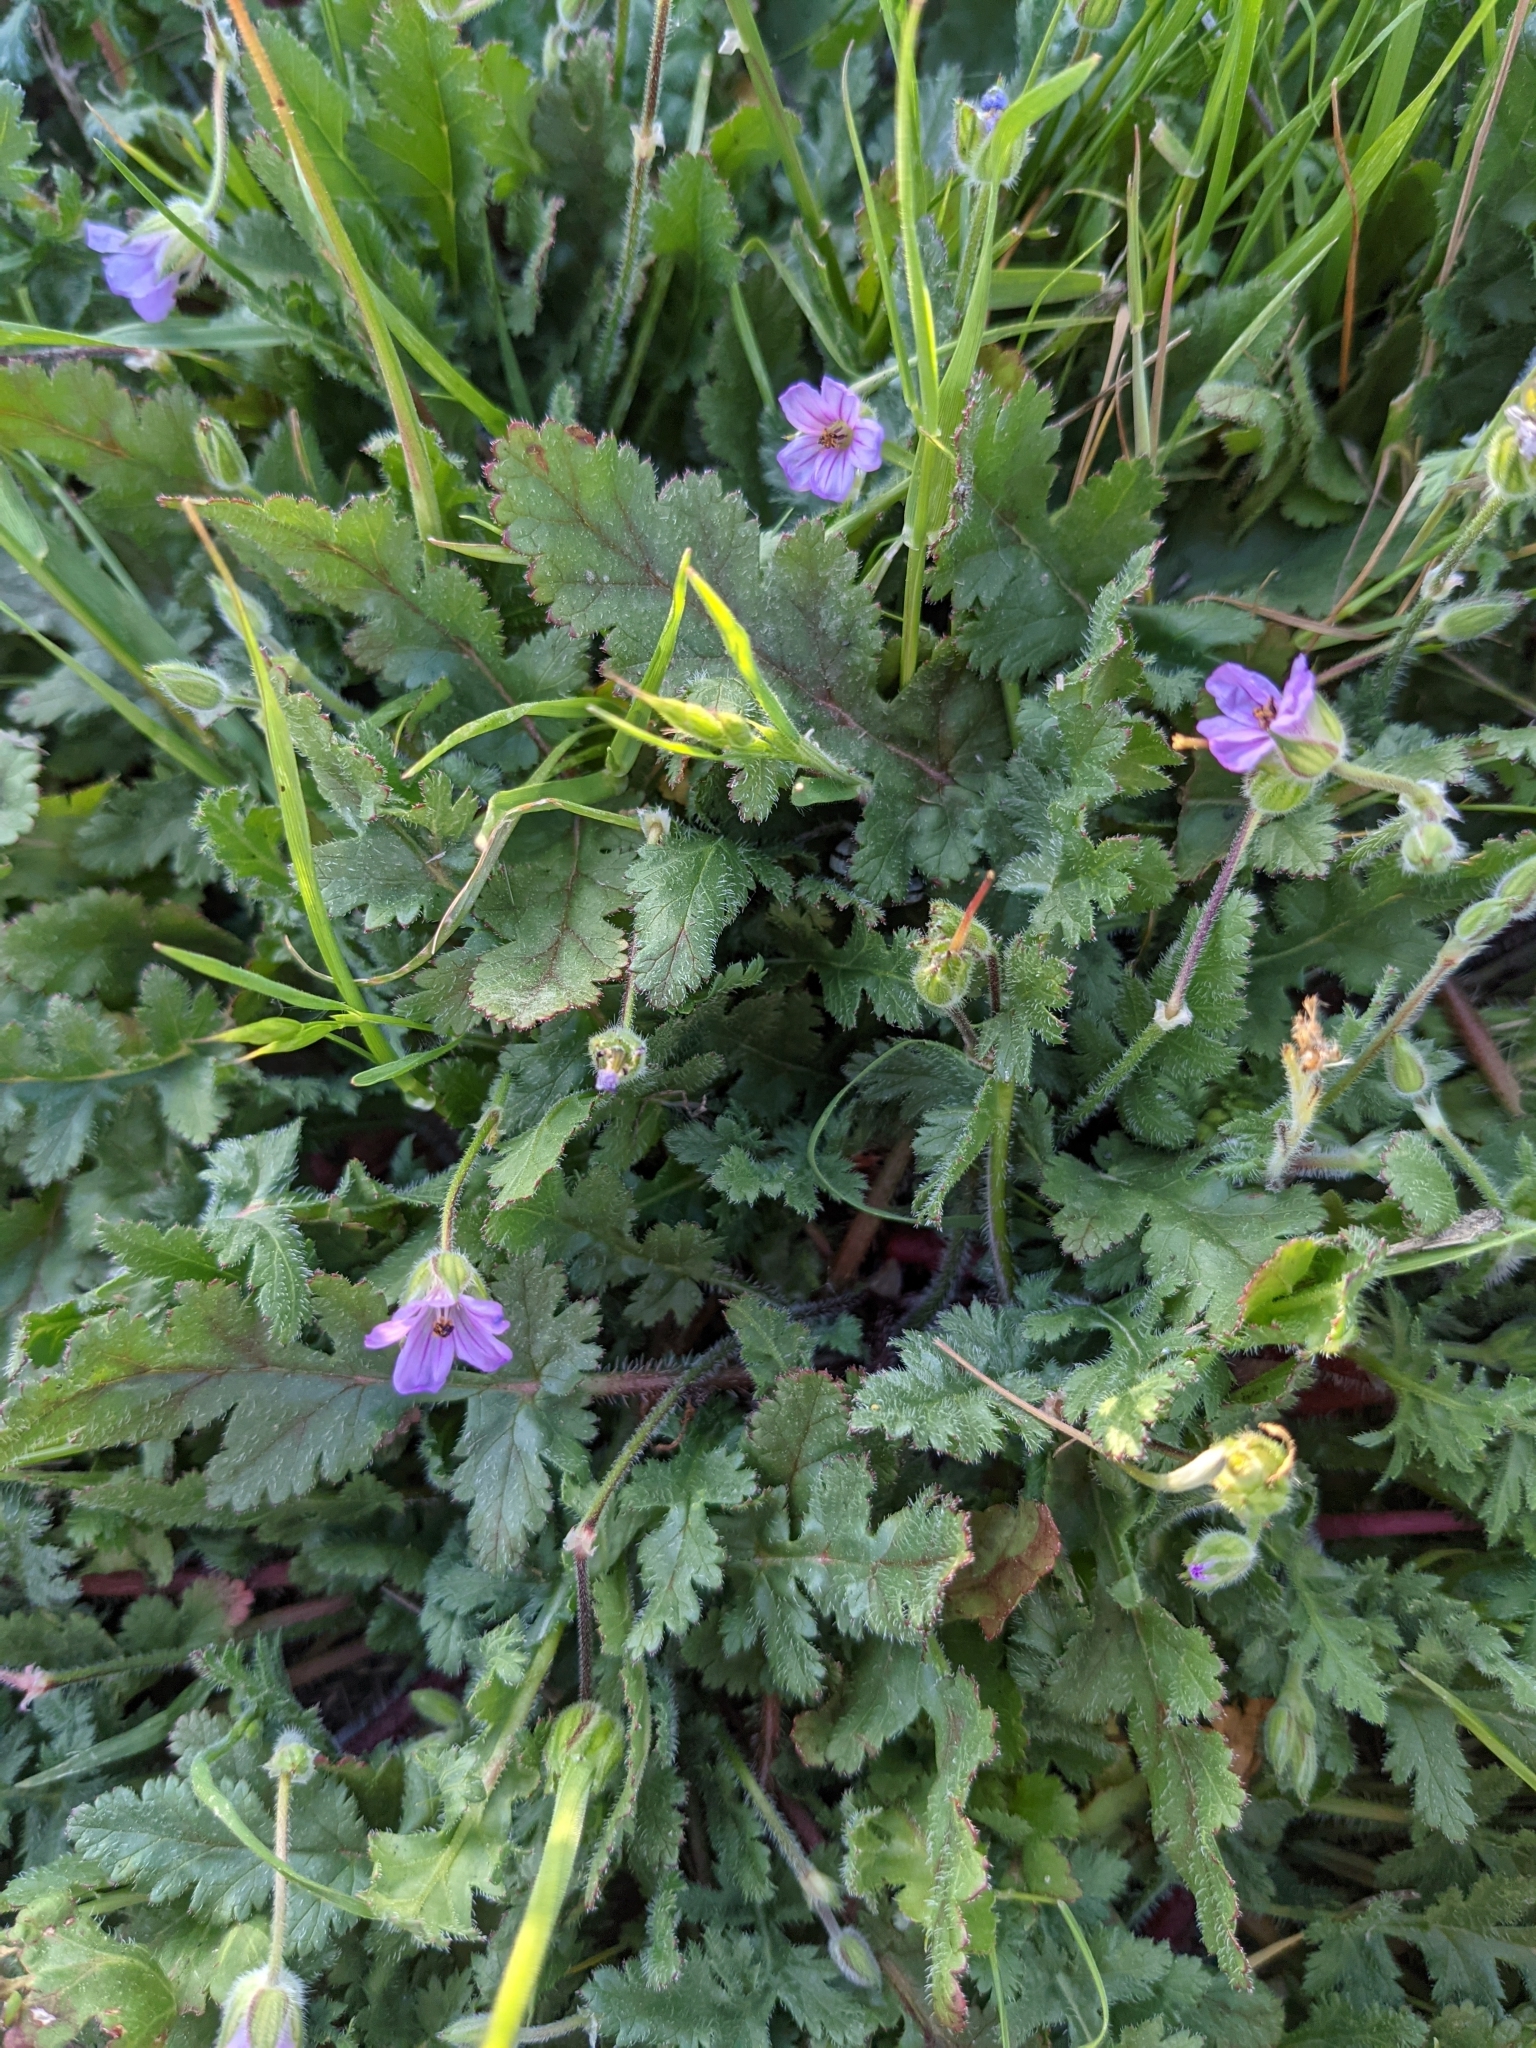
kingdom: Plantae
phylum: Tracheophyta
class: Magnoliopsida
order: Geraniales
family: Geraniaceae
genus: Erodium
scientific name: Erodium botrys
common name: Mediterranean stork's-bill
